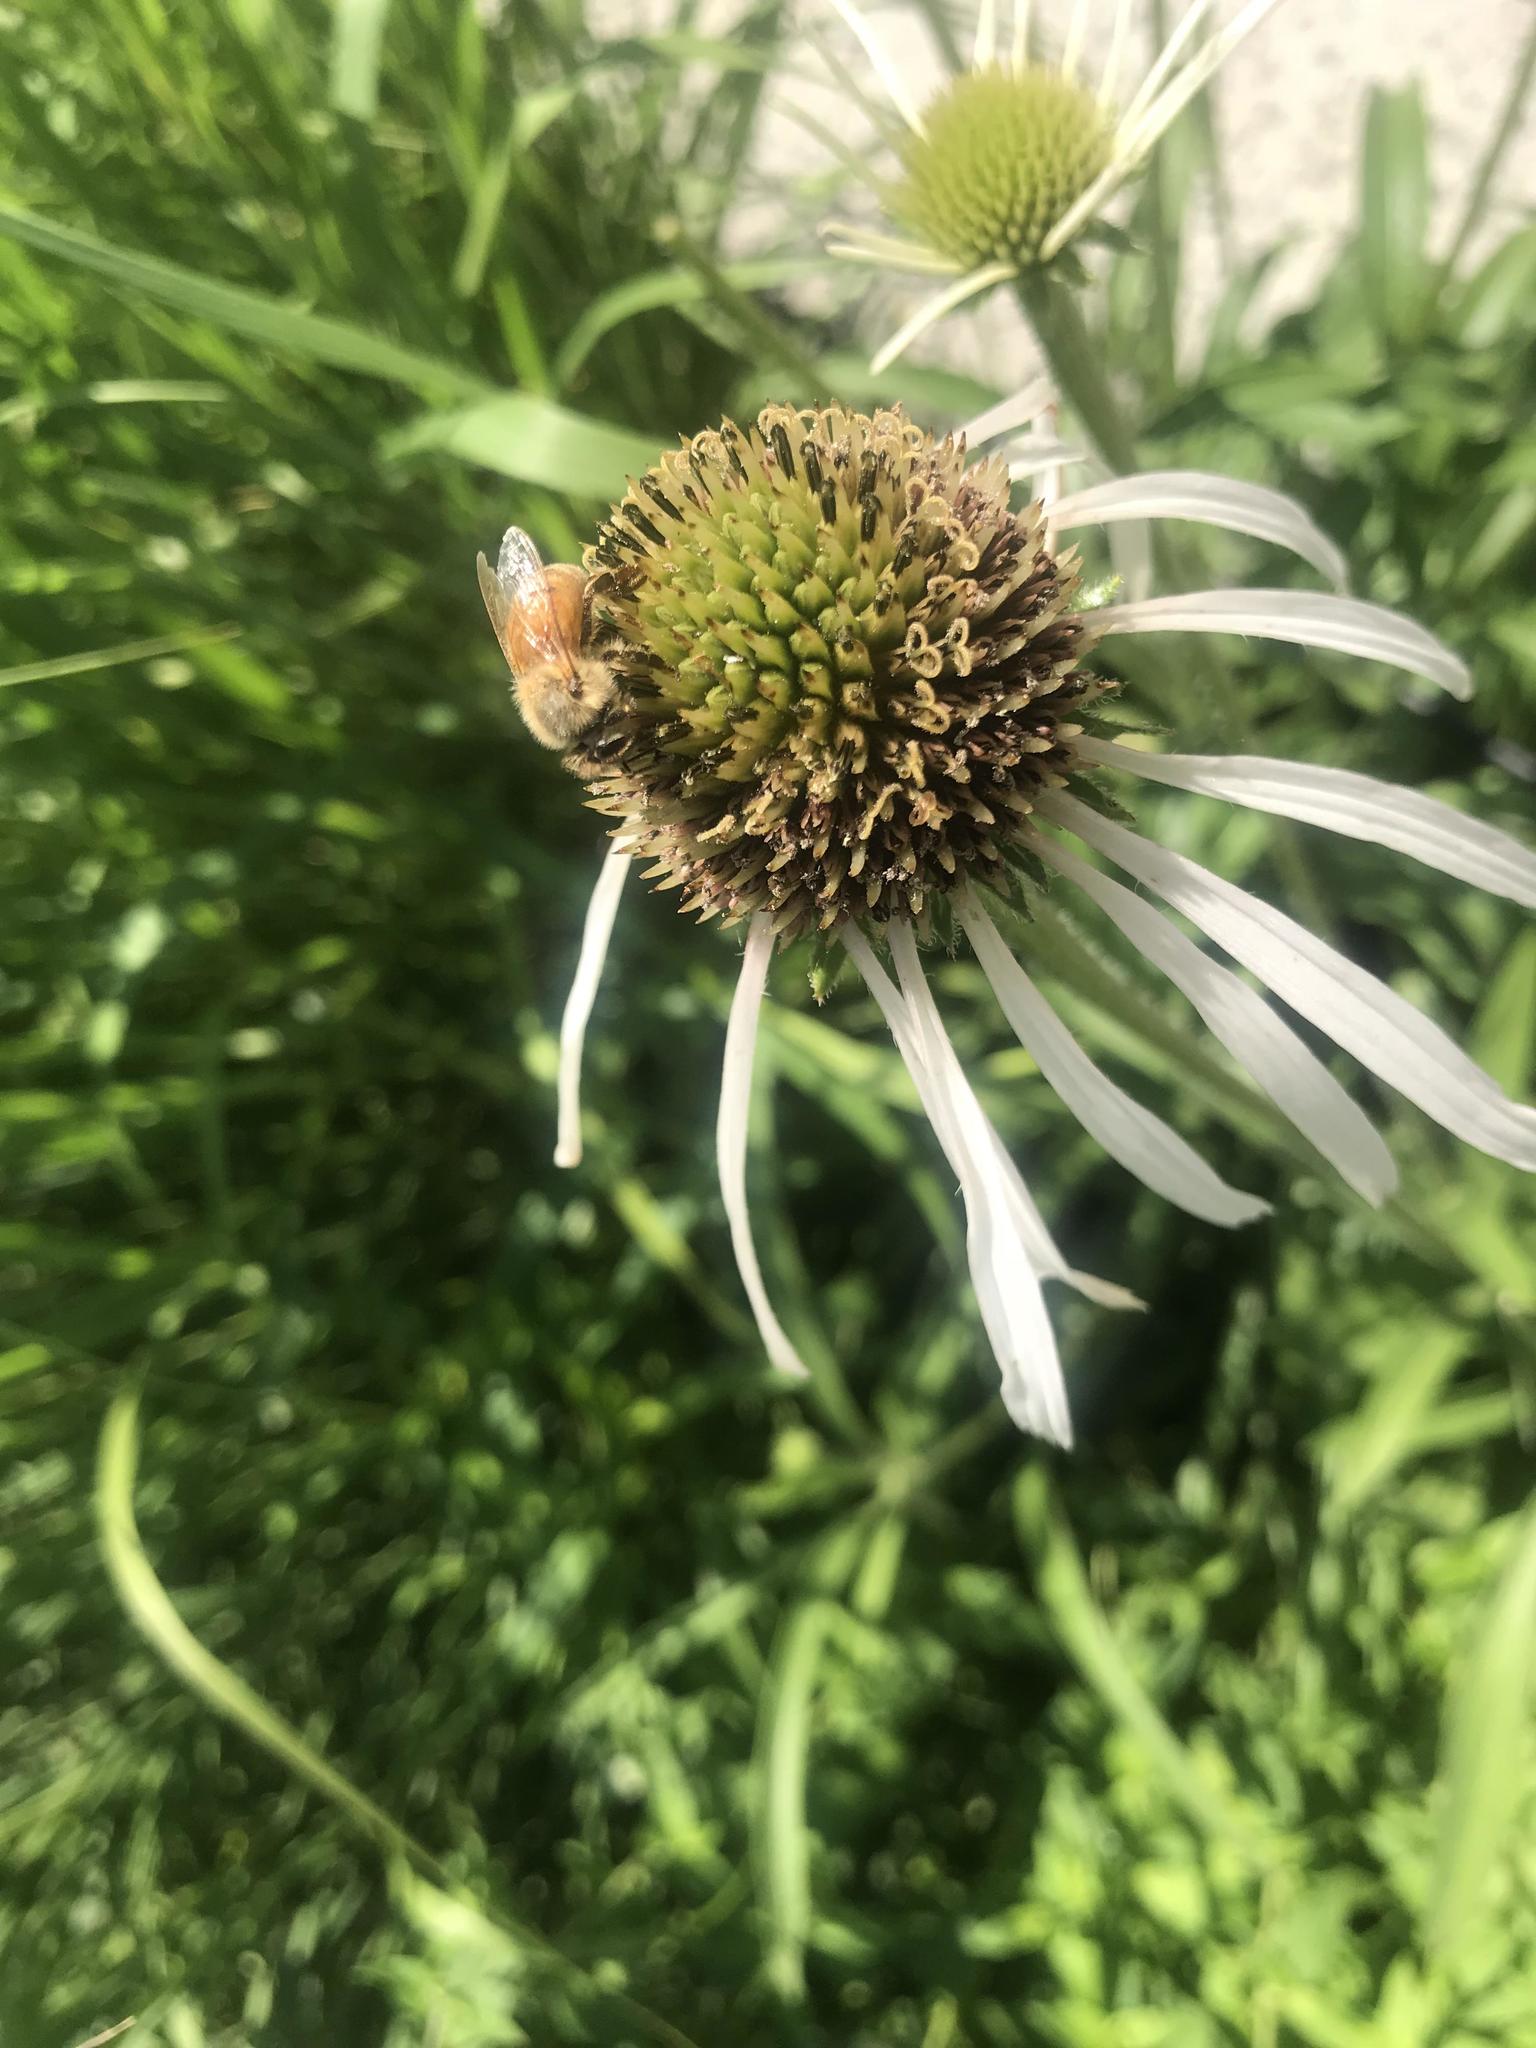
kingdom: Animalia
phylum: Arthropoda
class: Insecta
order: Hymenoptera
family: Apidae
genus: Apis
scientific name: Apis mellifera
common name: Honey bee
